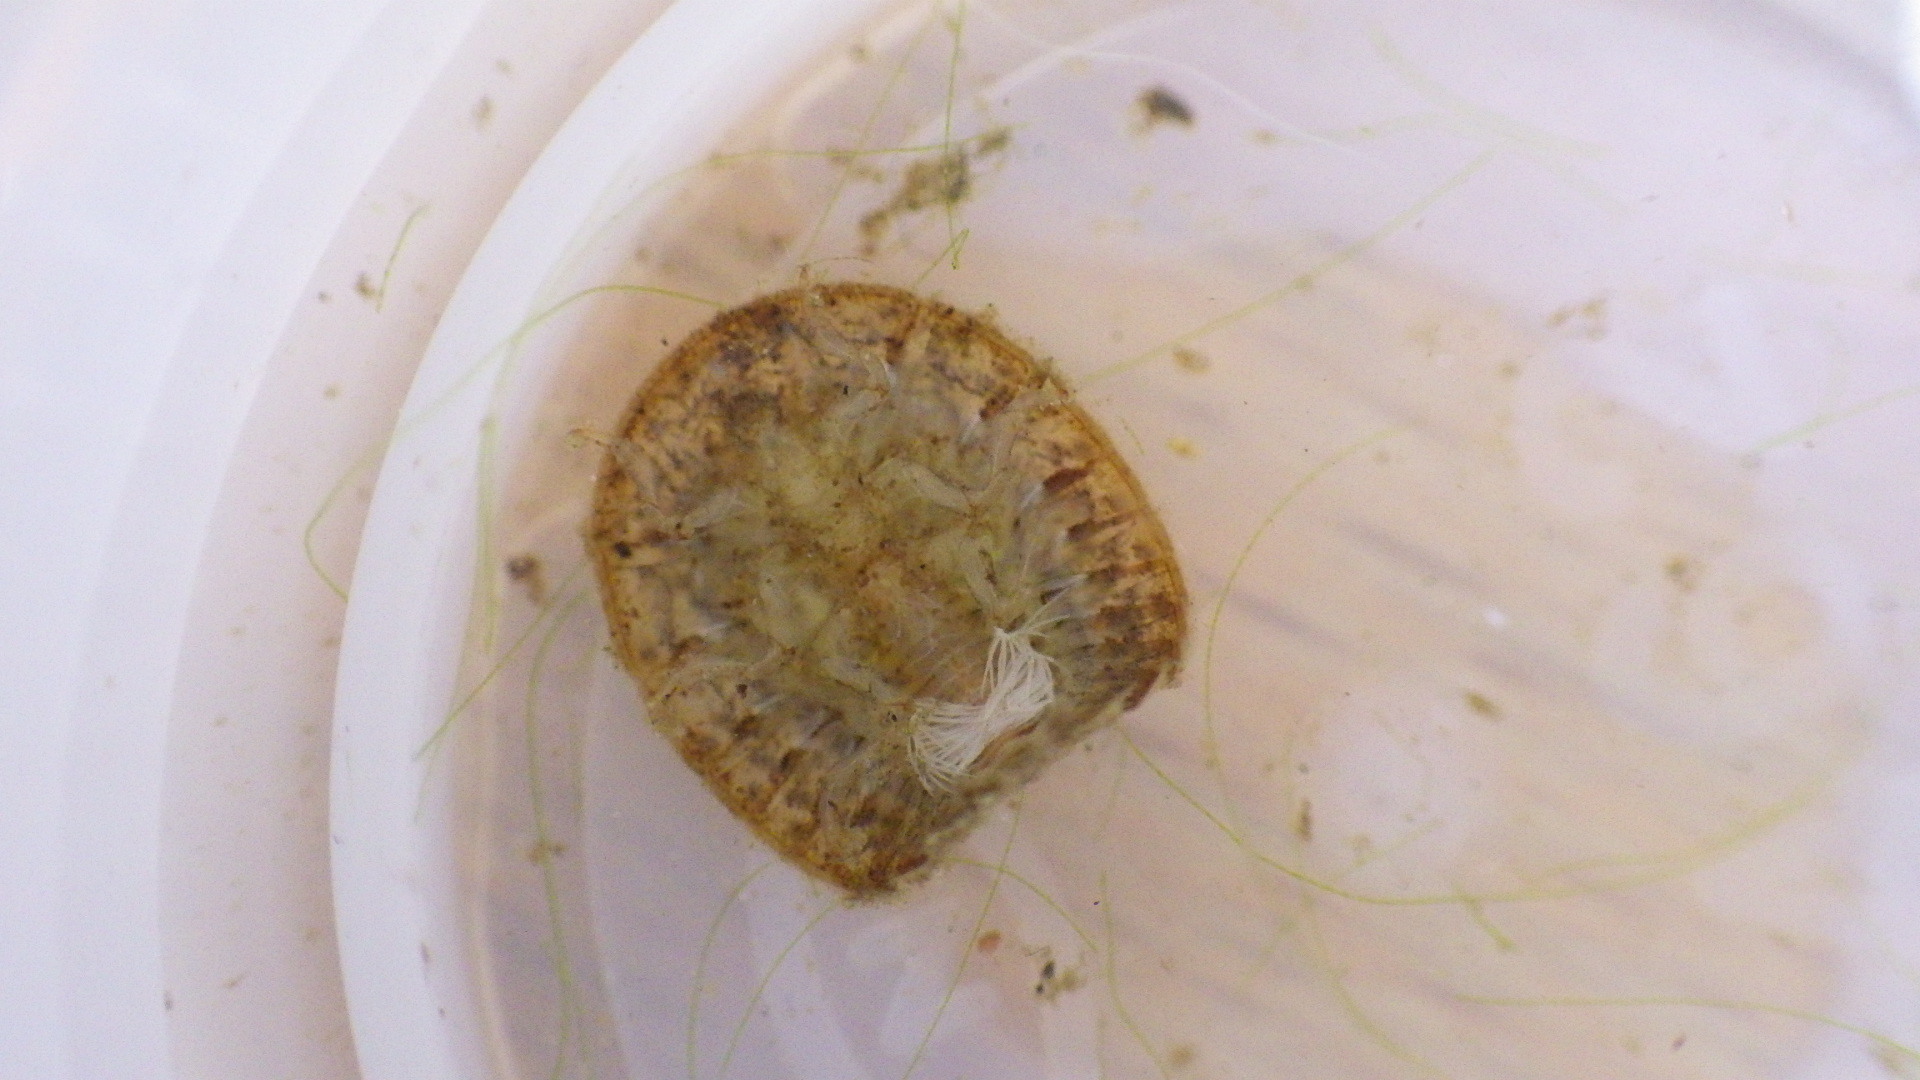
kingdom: Animalia
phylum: Arthropoda
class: Insecta
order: Coleoptera
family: Psephenidae
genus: Psephenus
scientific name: Psephenus herricki
